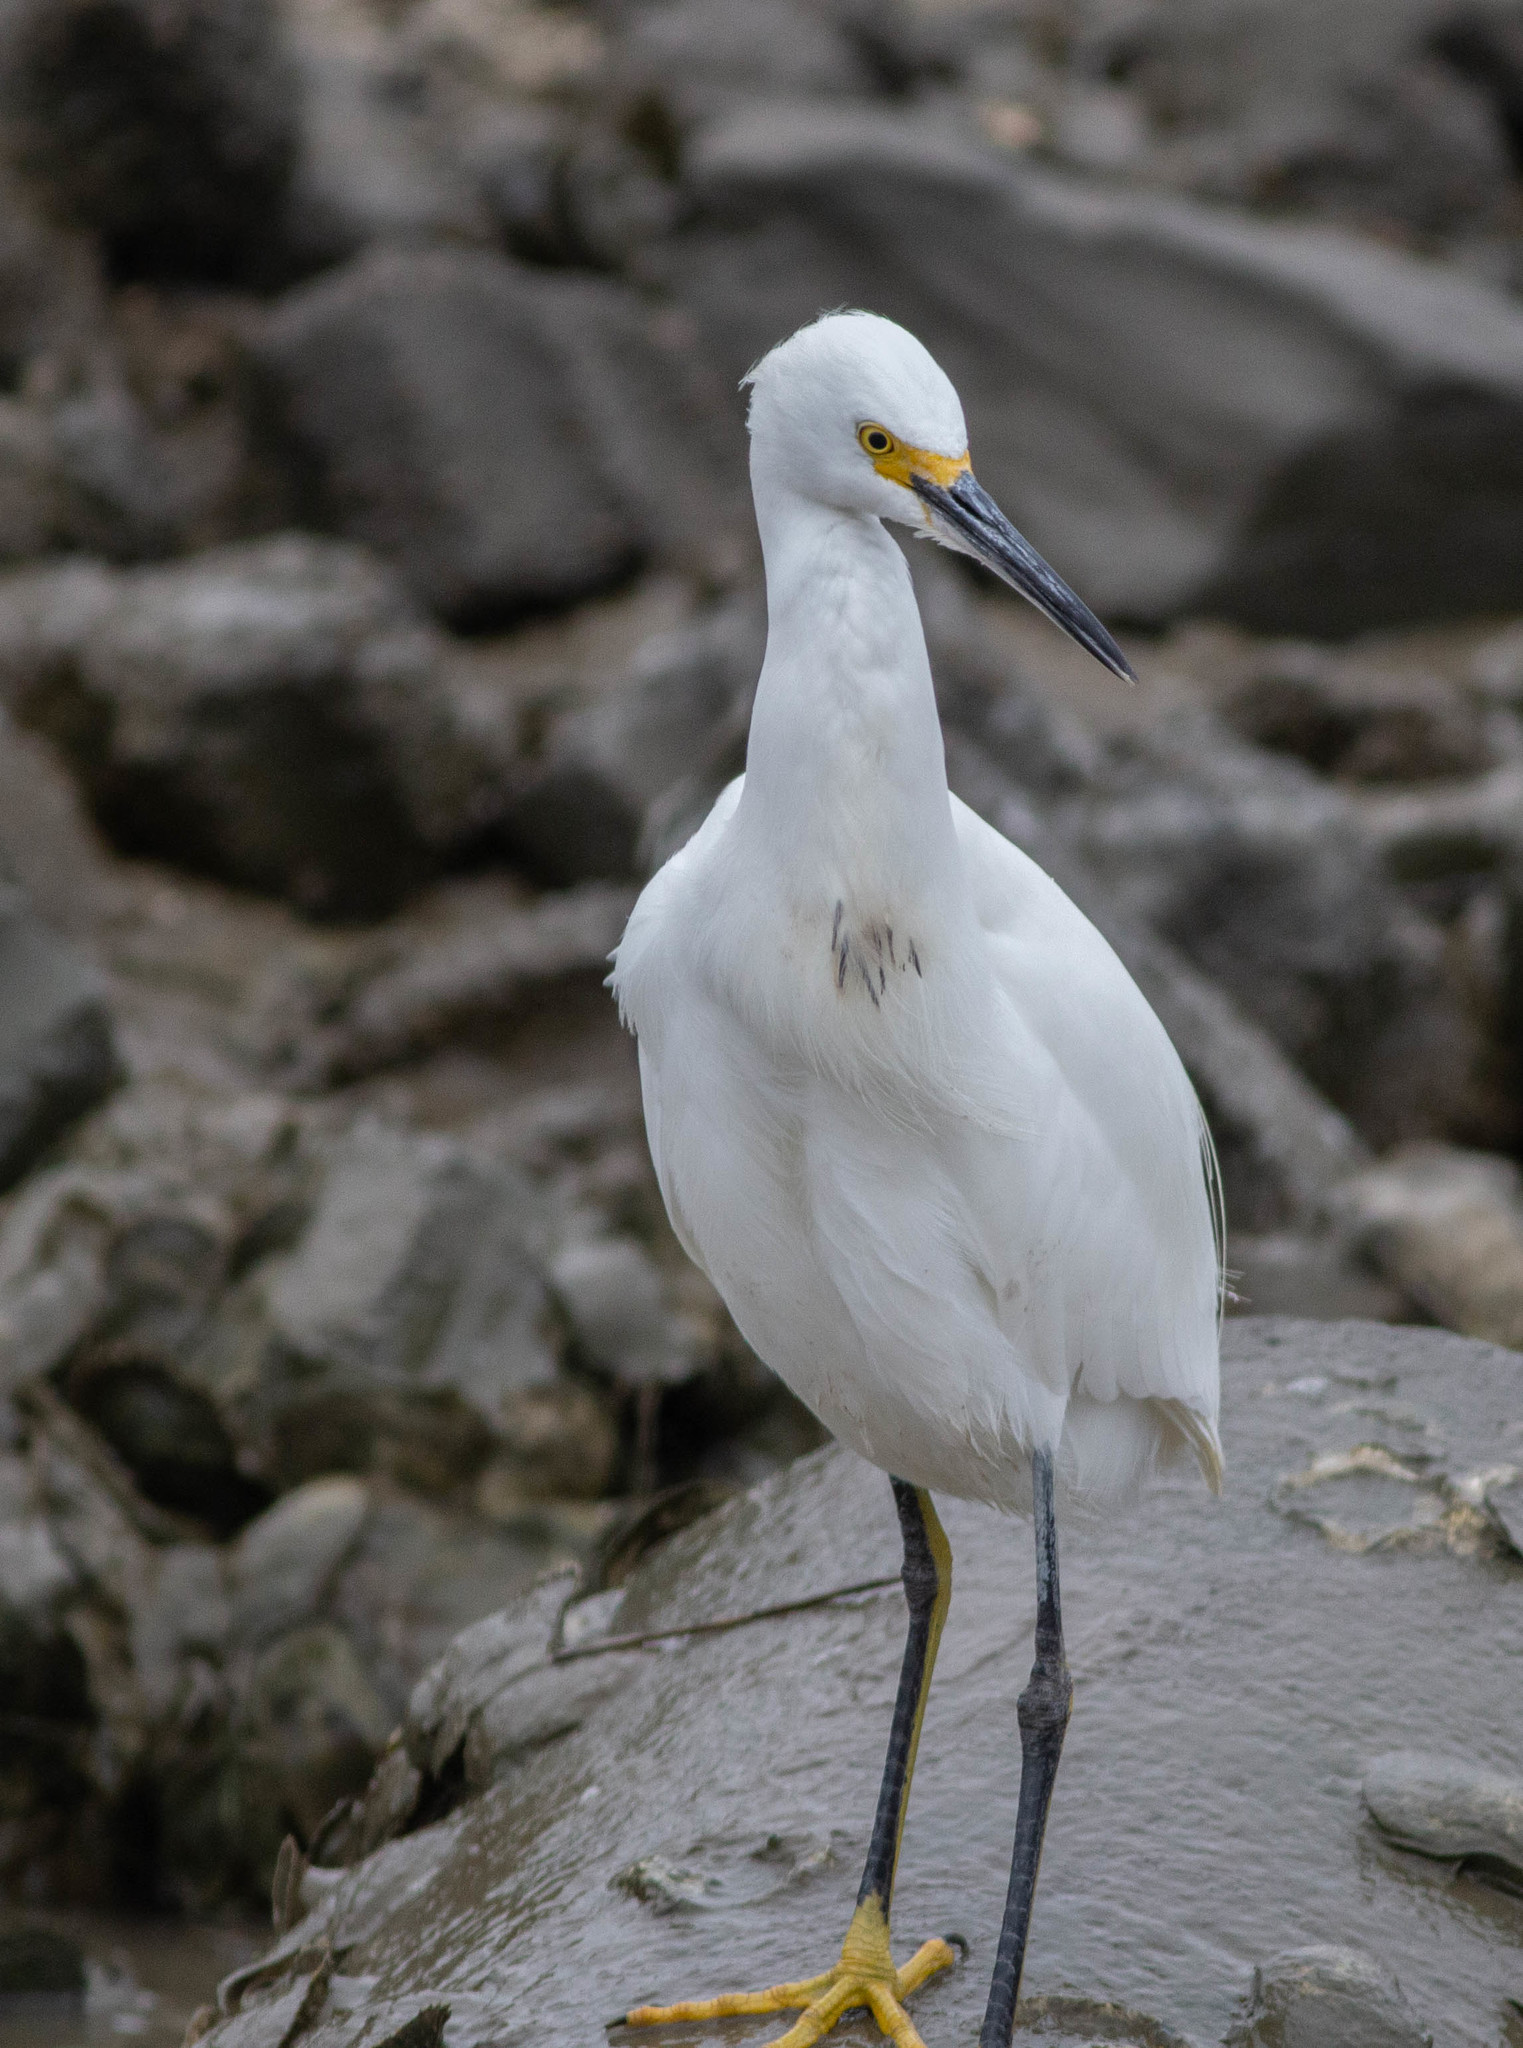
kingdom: Animalia
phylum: Chordata
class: Aves
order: Pelecaniformes
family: Ardeidae
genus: Egretta
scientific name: Egretta thula
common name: Snowy egret
